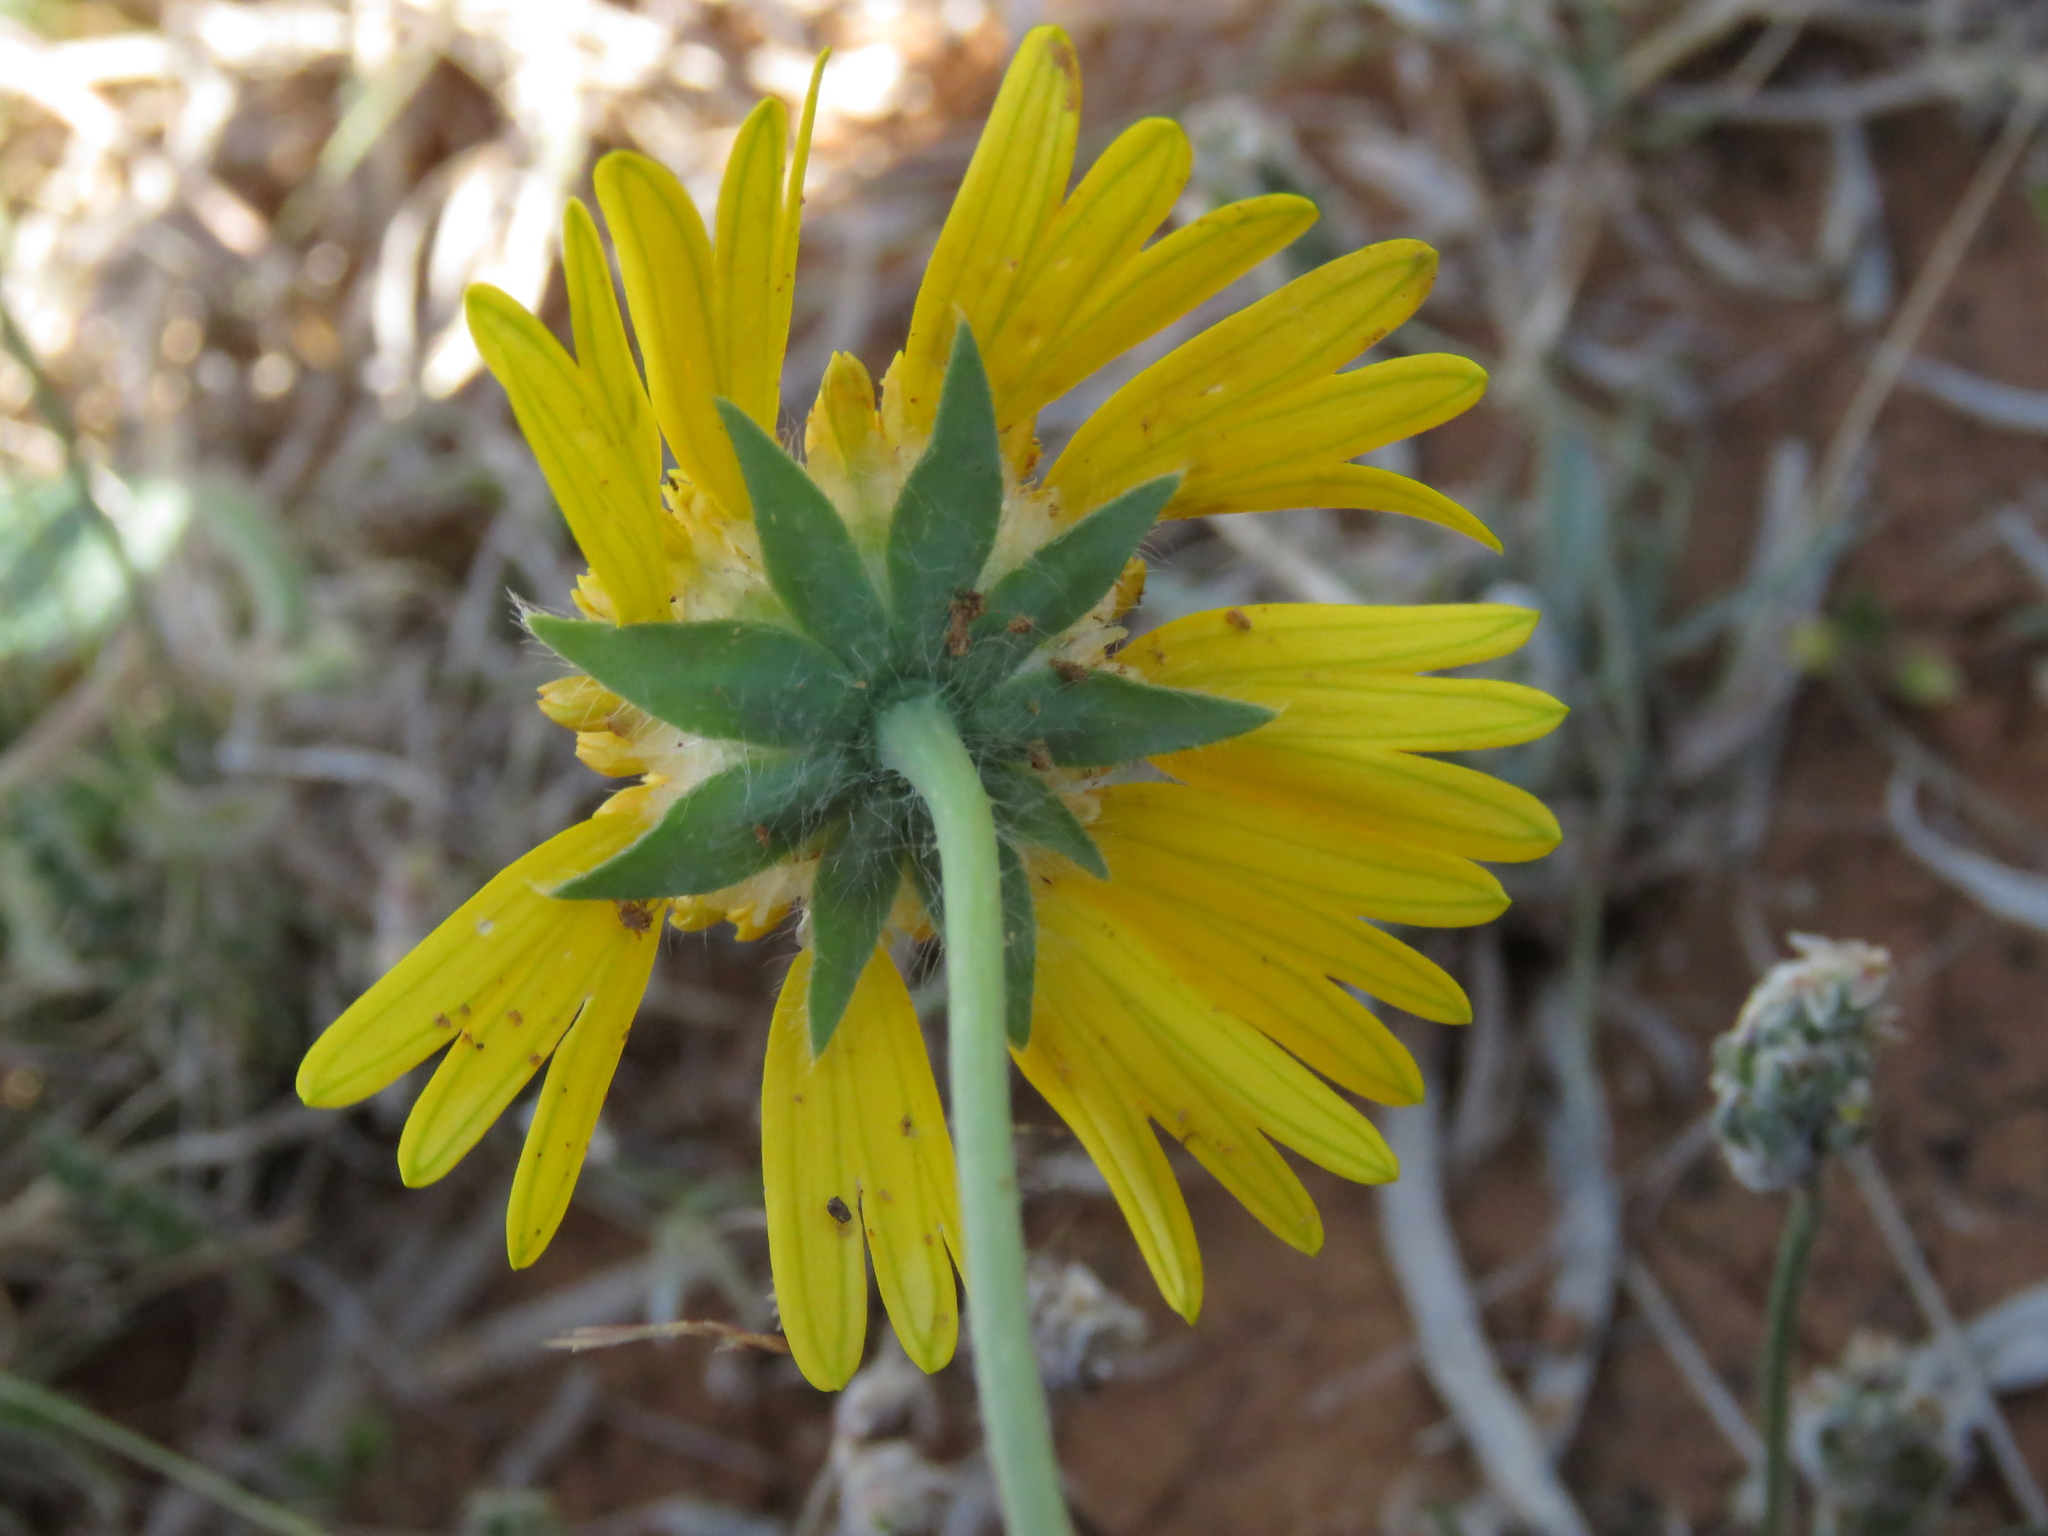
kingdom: Plantae
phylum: Tracheophyta
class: Magnoliopsida
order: Asterales
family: Asteraceae
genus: Amblyolepis
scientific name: Amblyolepis setigera
